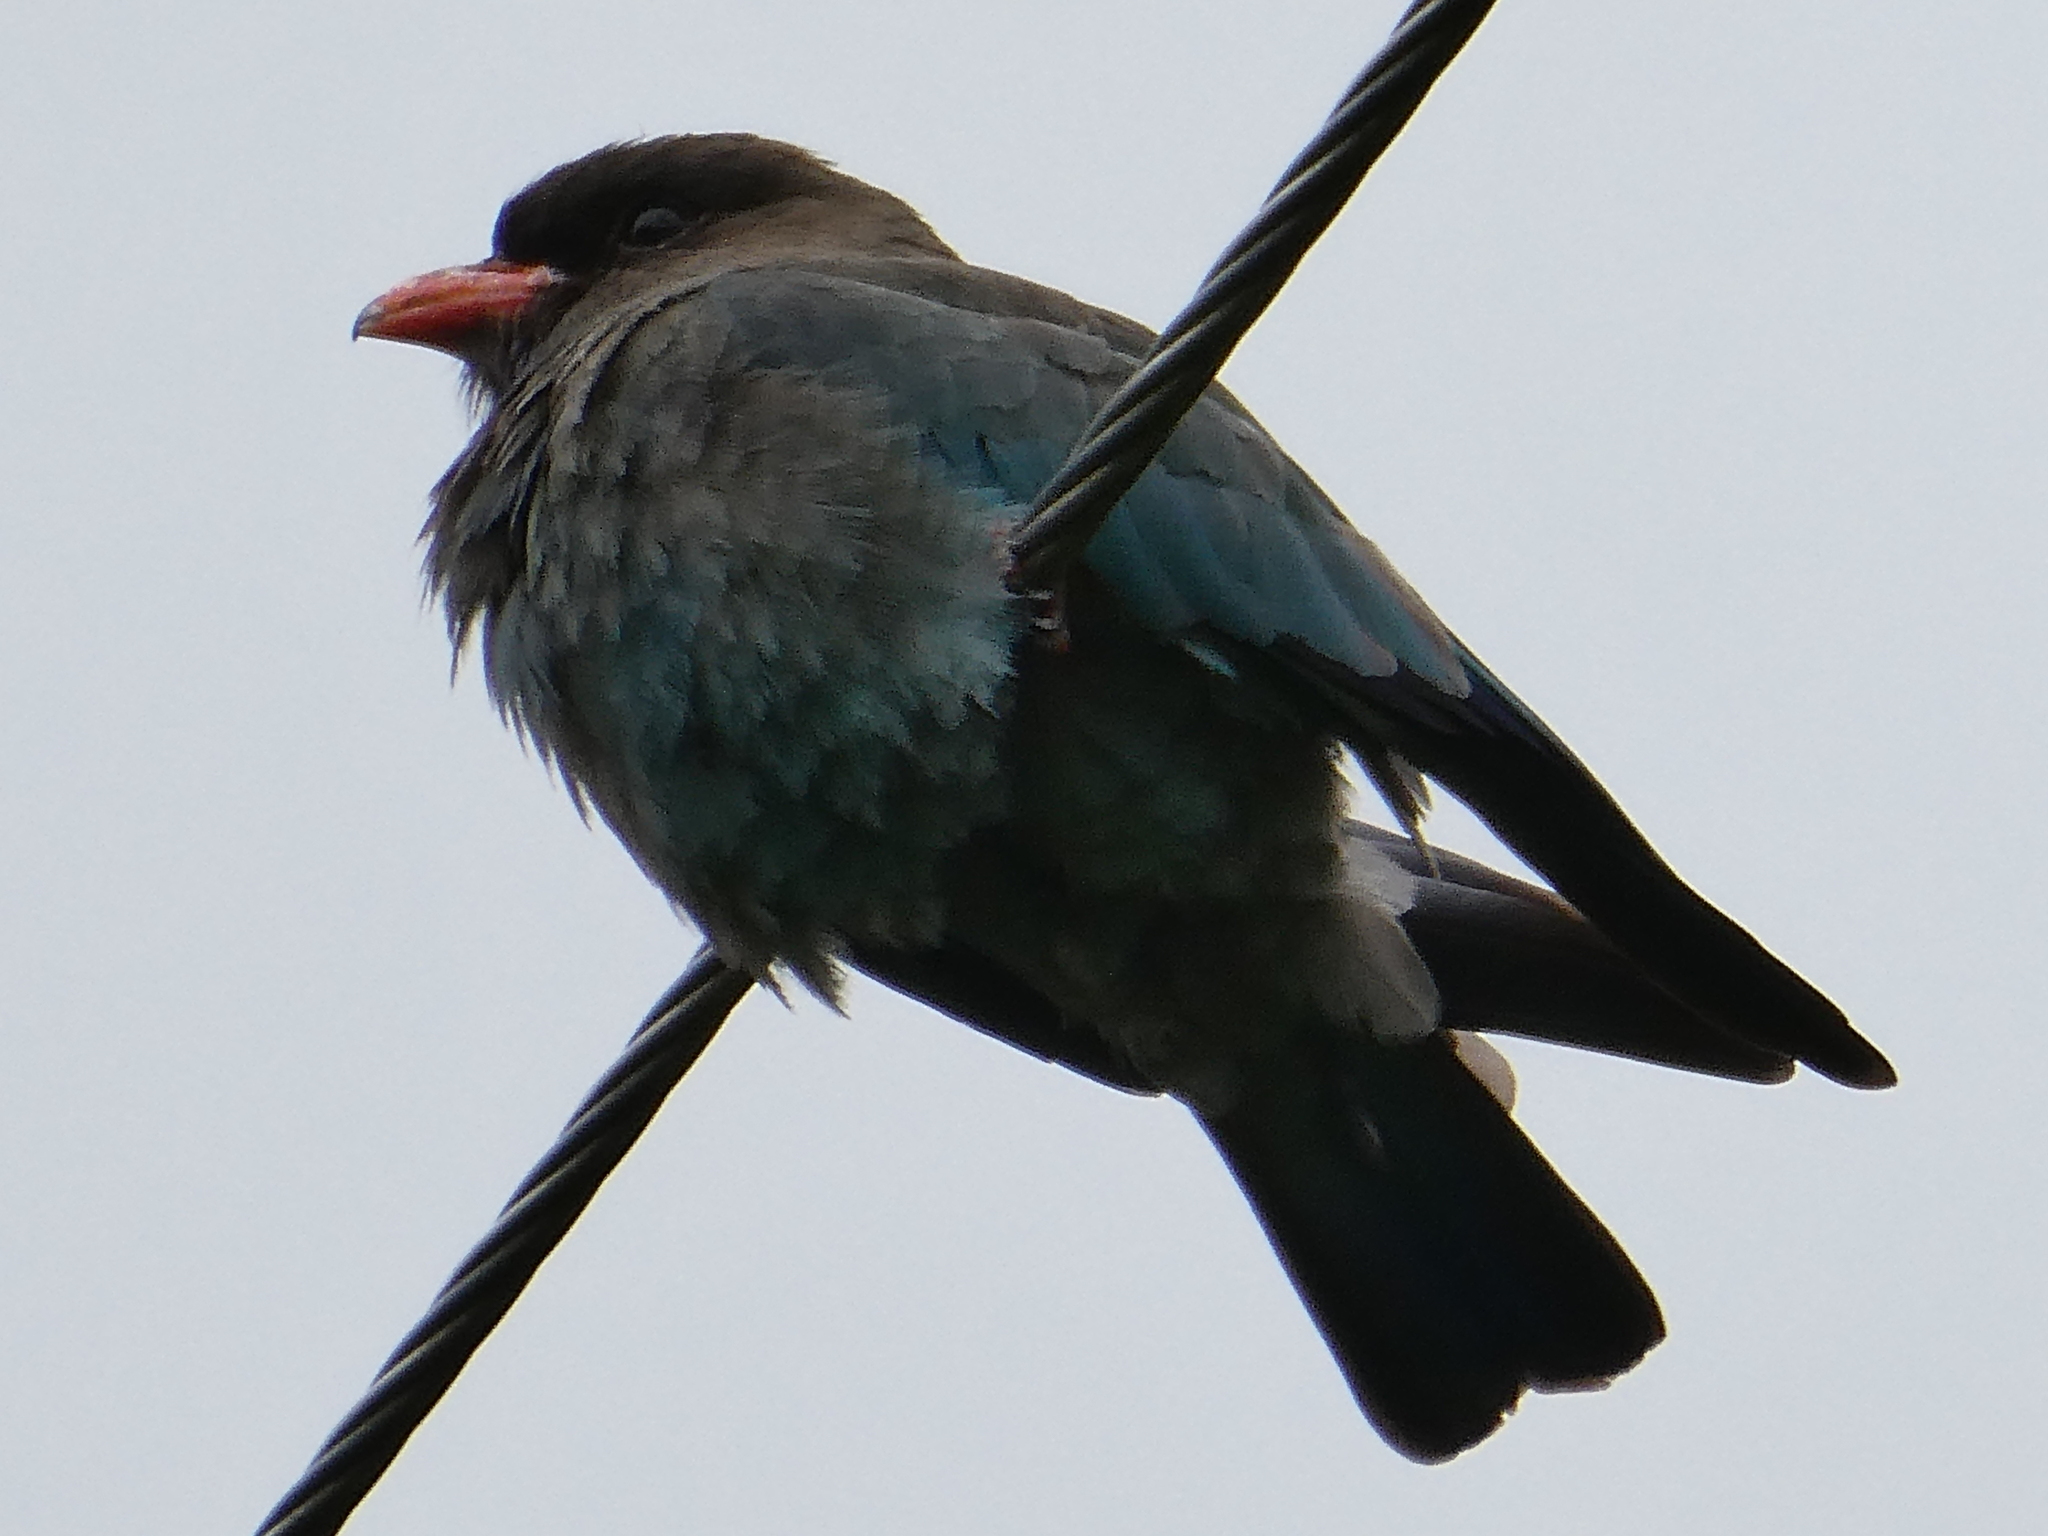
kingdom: Animalia
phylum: Chordata
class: Aves
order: Coraciiformes
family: Coraciidae
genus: Eurystomus
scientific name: Eurystomus orientalis
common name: Oriental dollarbird
